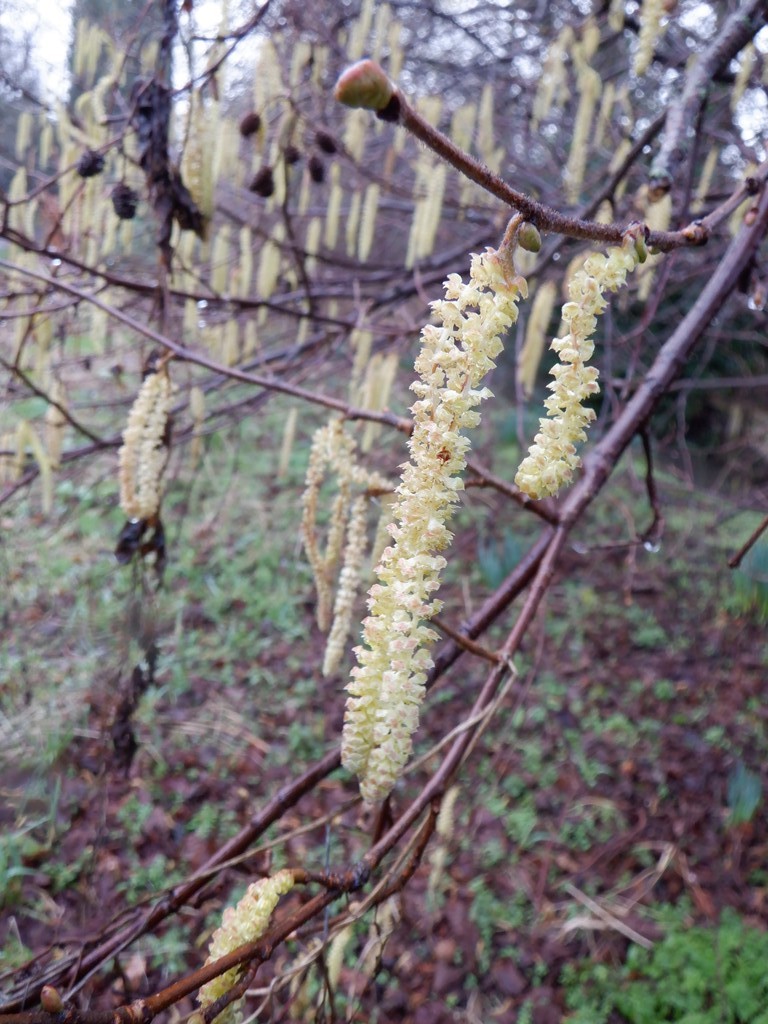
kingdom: Plantae
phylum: Tracheophyta
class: Magnoliopsida
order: Fagales
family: Betulaceae
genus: Corylus
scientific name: Corylus avellana
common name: European hazel
